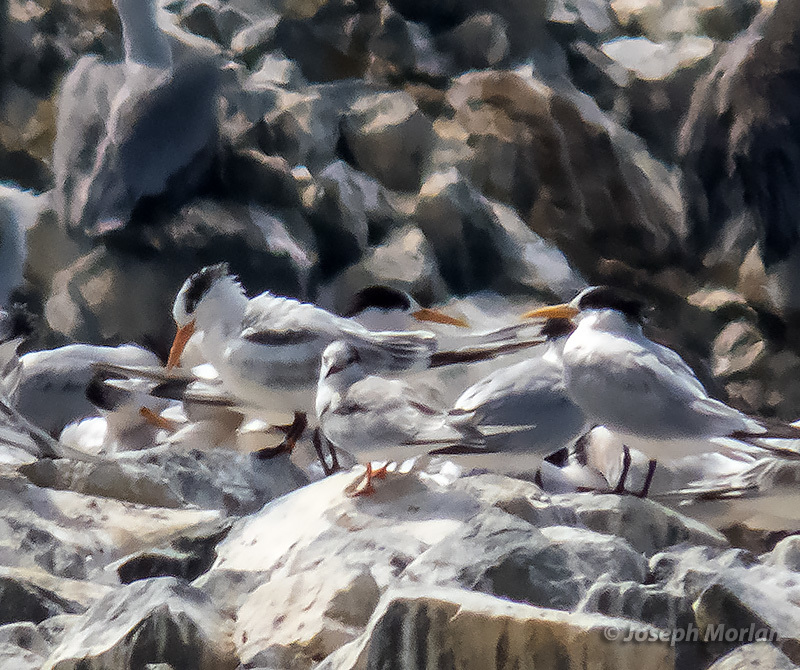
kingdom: Animalia
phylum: Chordata
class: Aves
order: Charadriiformes
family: Laridae
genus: Sterna
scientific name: Sterna hirundo
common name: Common tern
